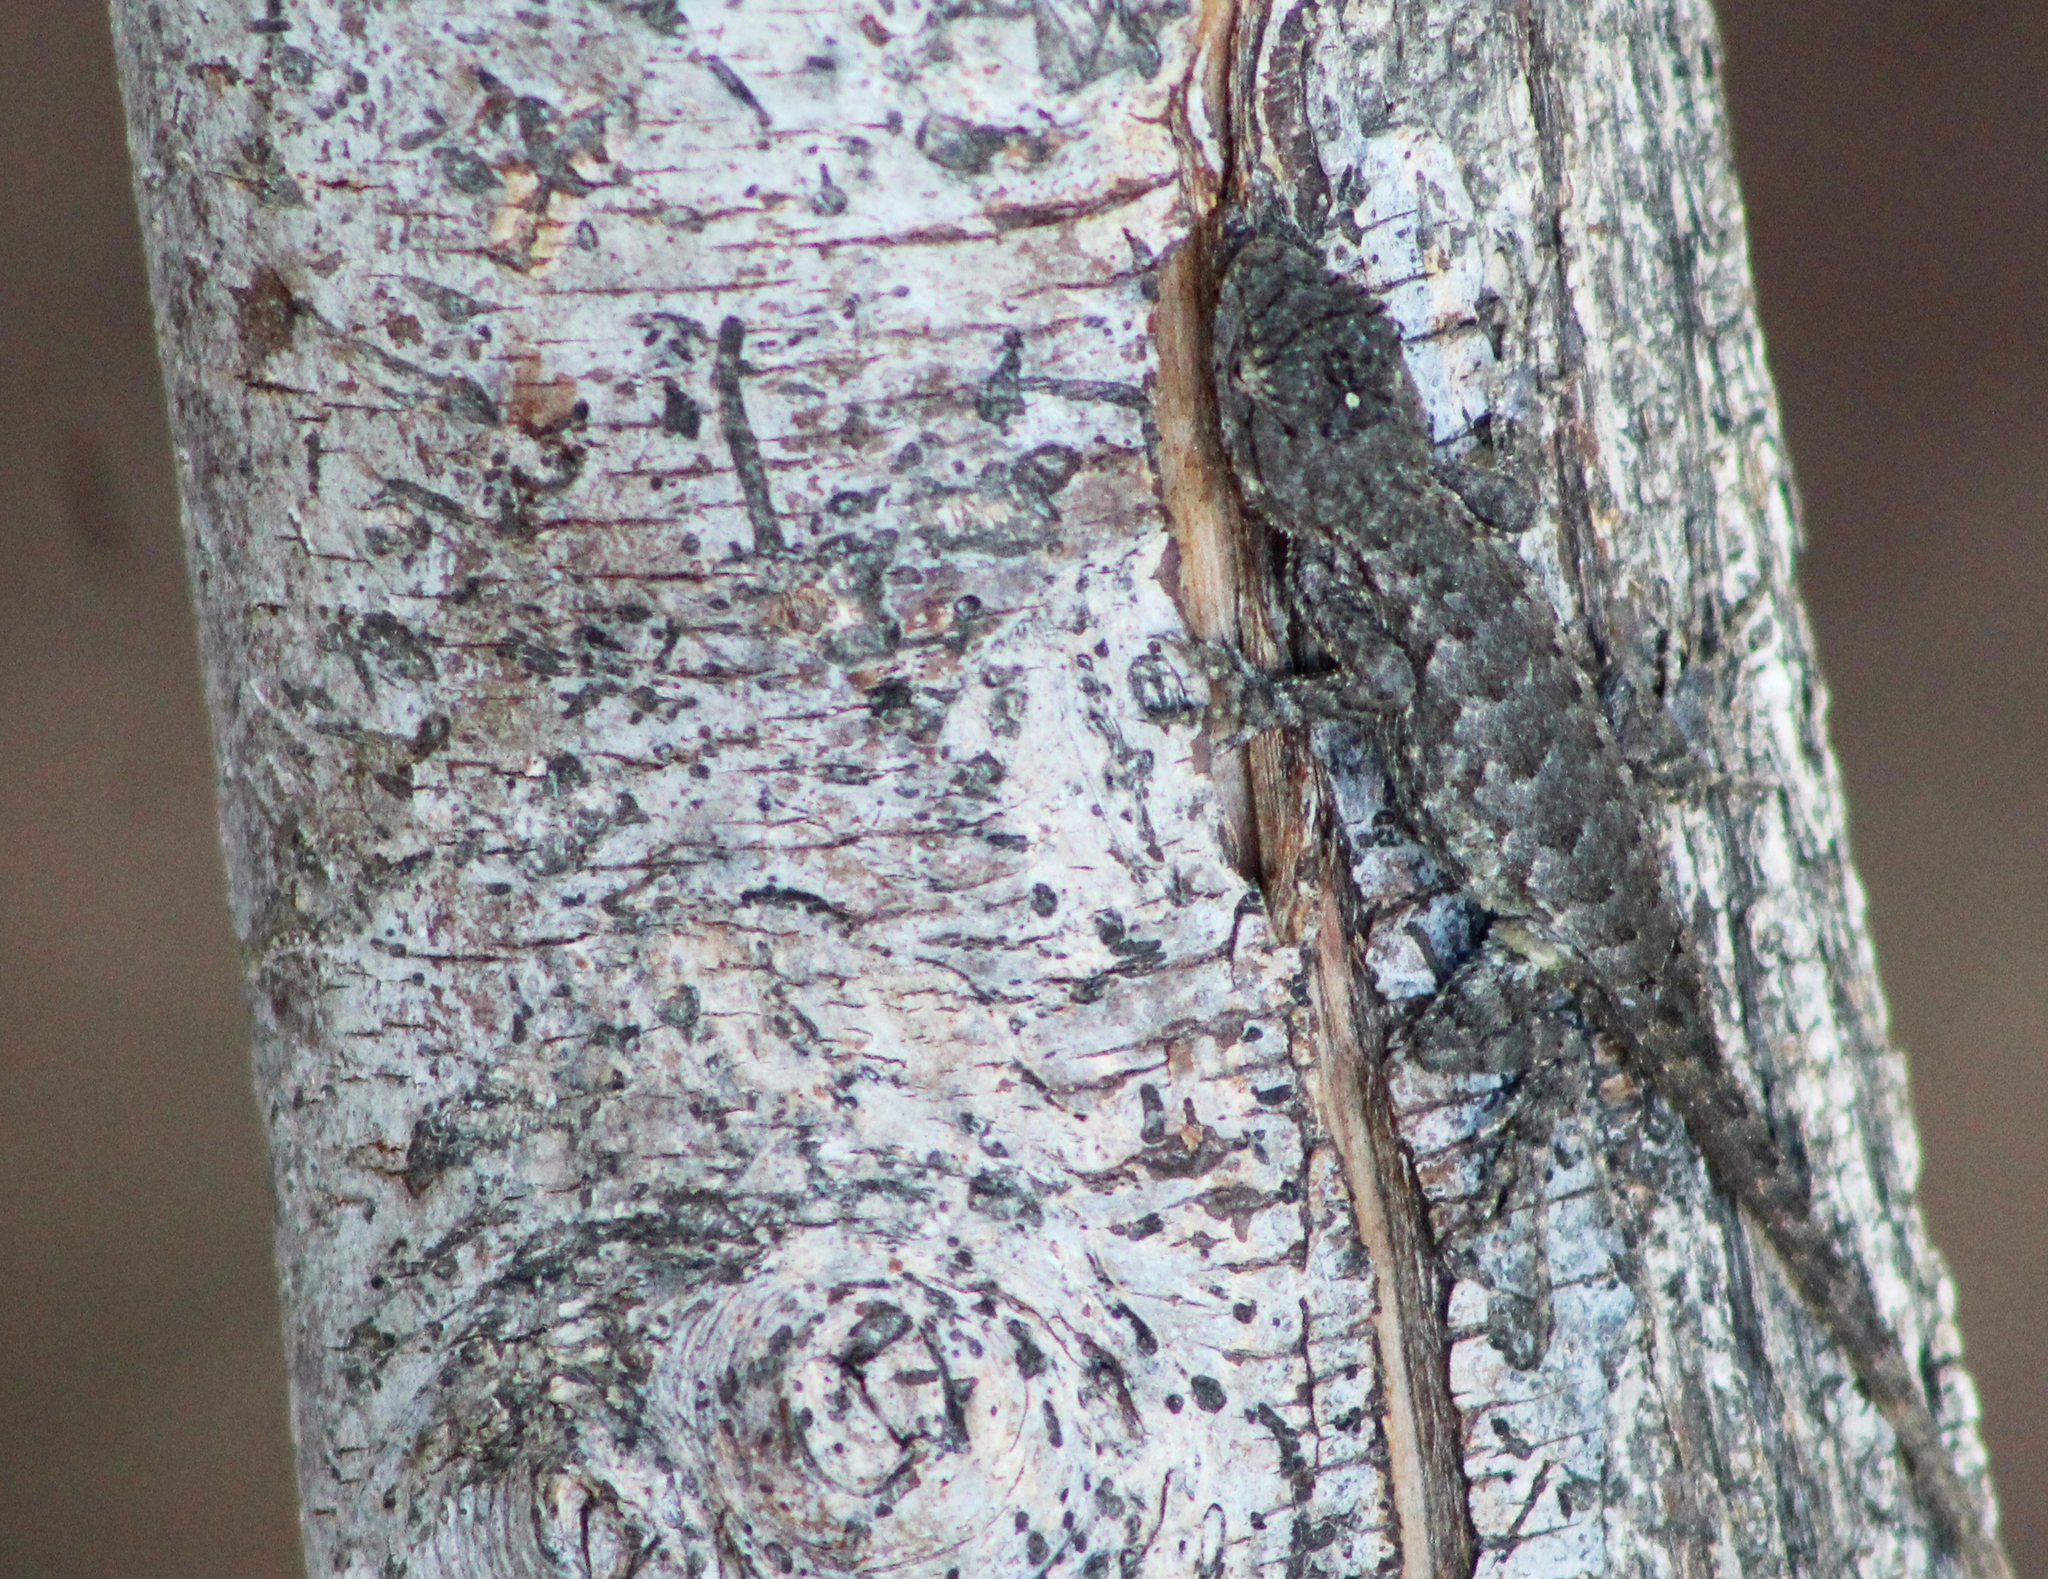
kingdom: Animalia
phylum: Chordata
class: Squamata
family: Phrynosomatidae
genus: Sceloporus
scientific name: Sceloporus occidentalis
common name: Western fence lizard
